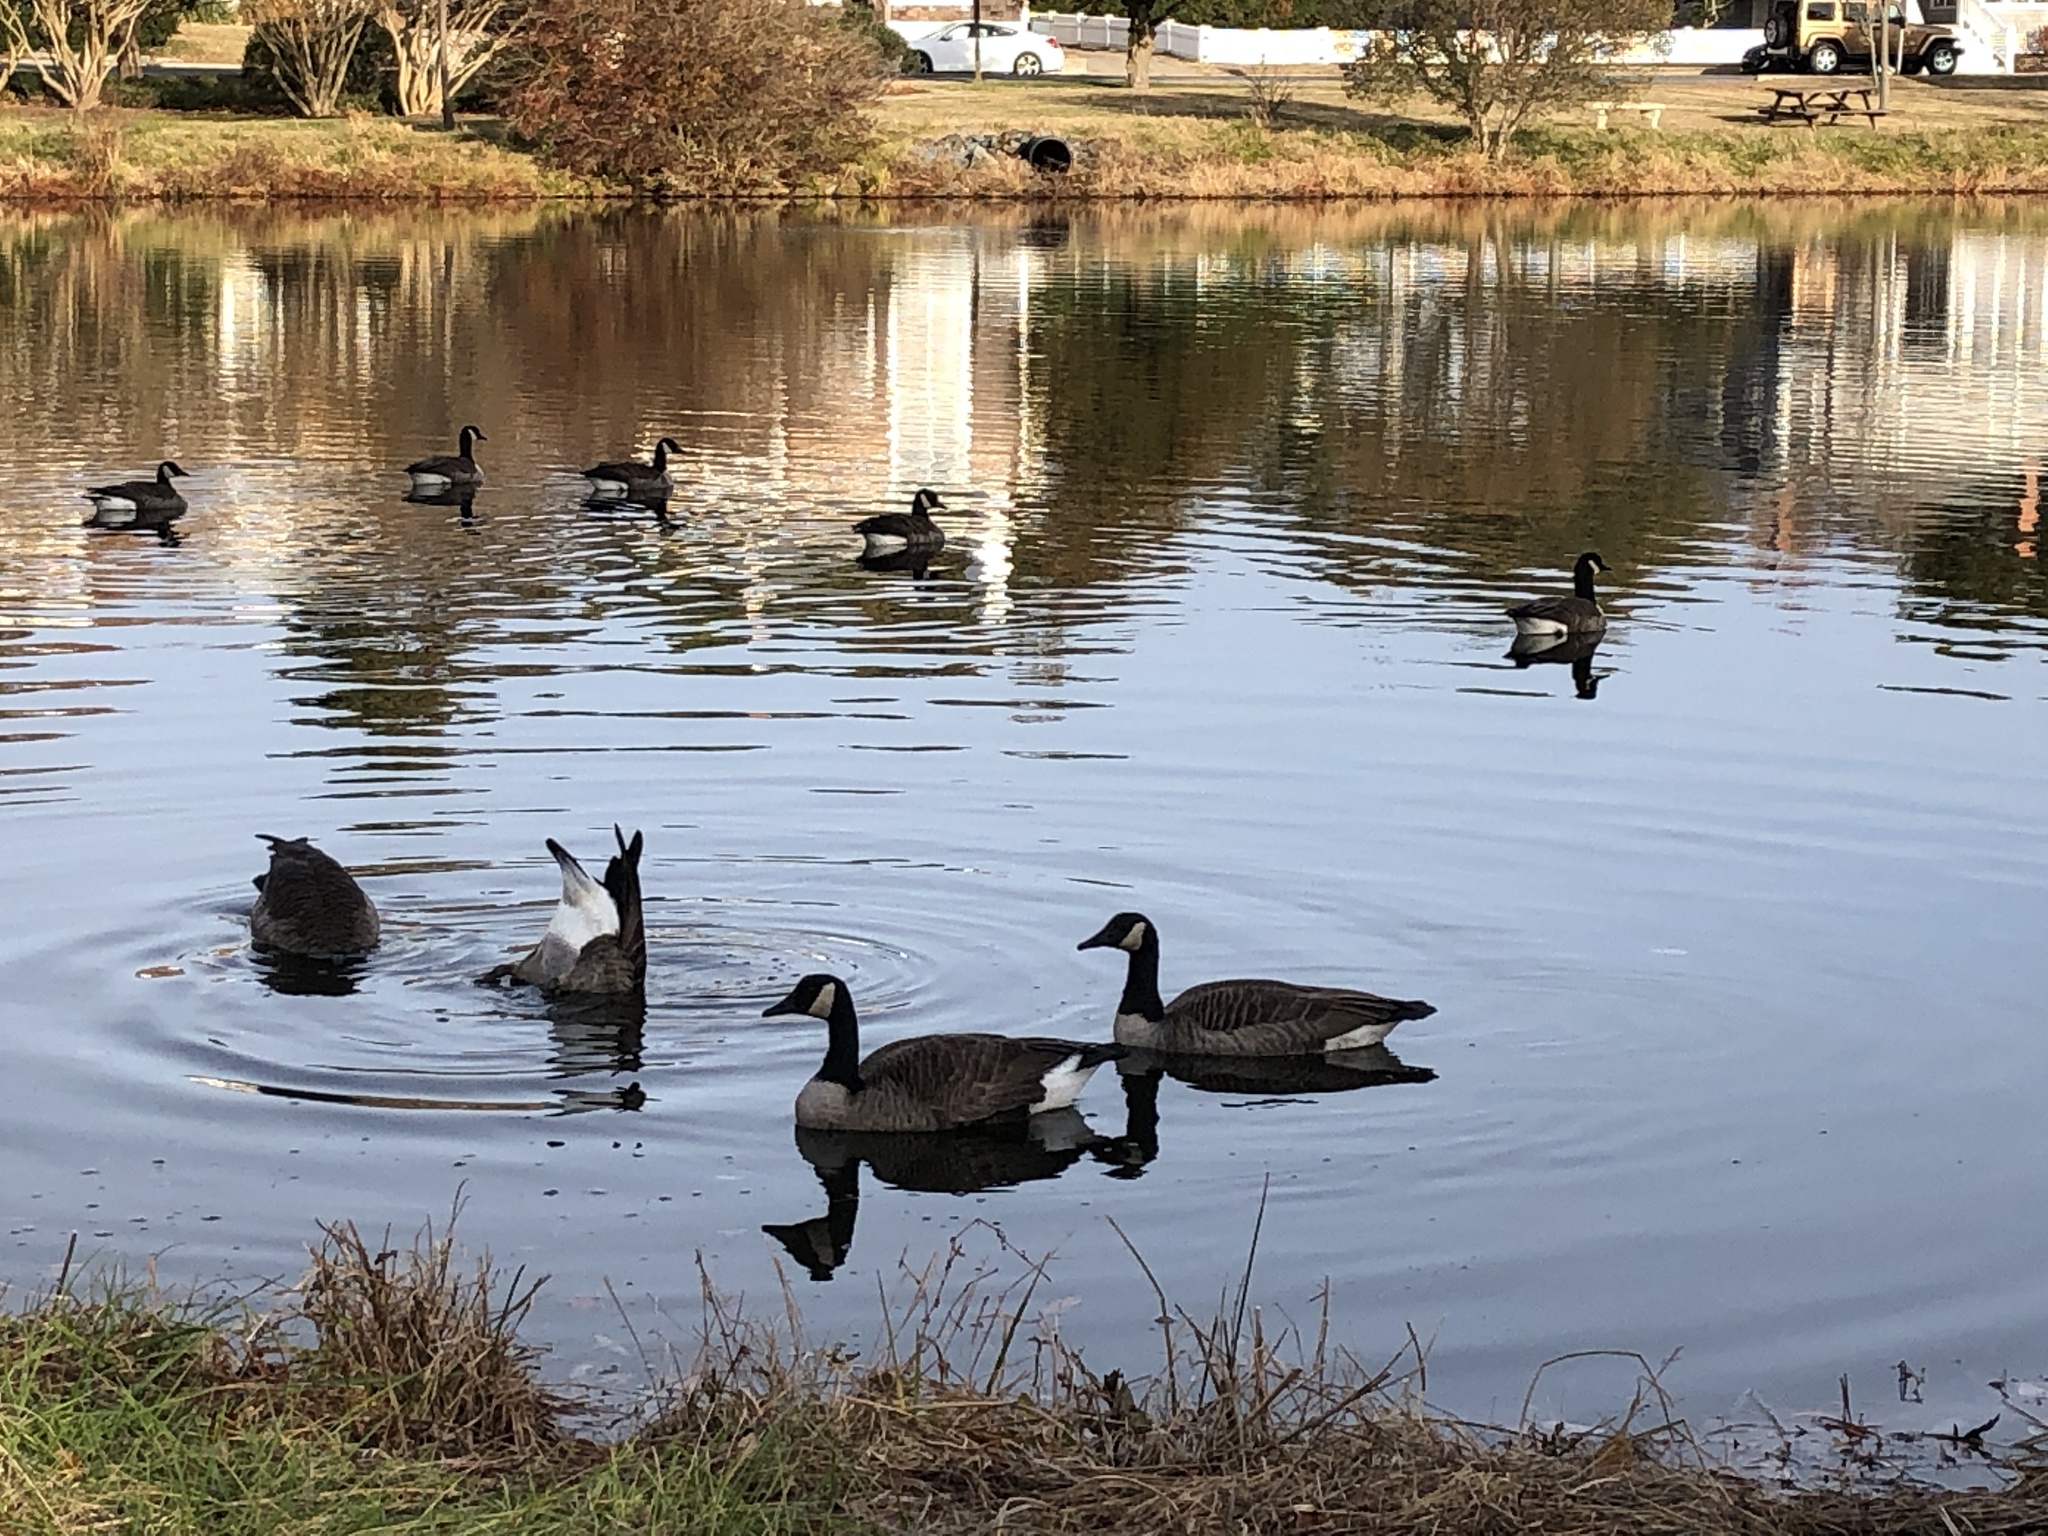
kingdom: Animalia
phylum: Chordata
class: Aves
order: Anseriformes
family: Anatidae
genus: Branta
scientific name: Branta canadensis
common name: Canada goose
